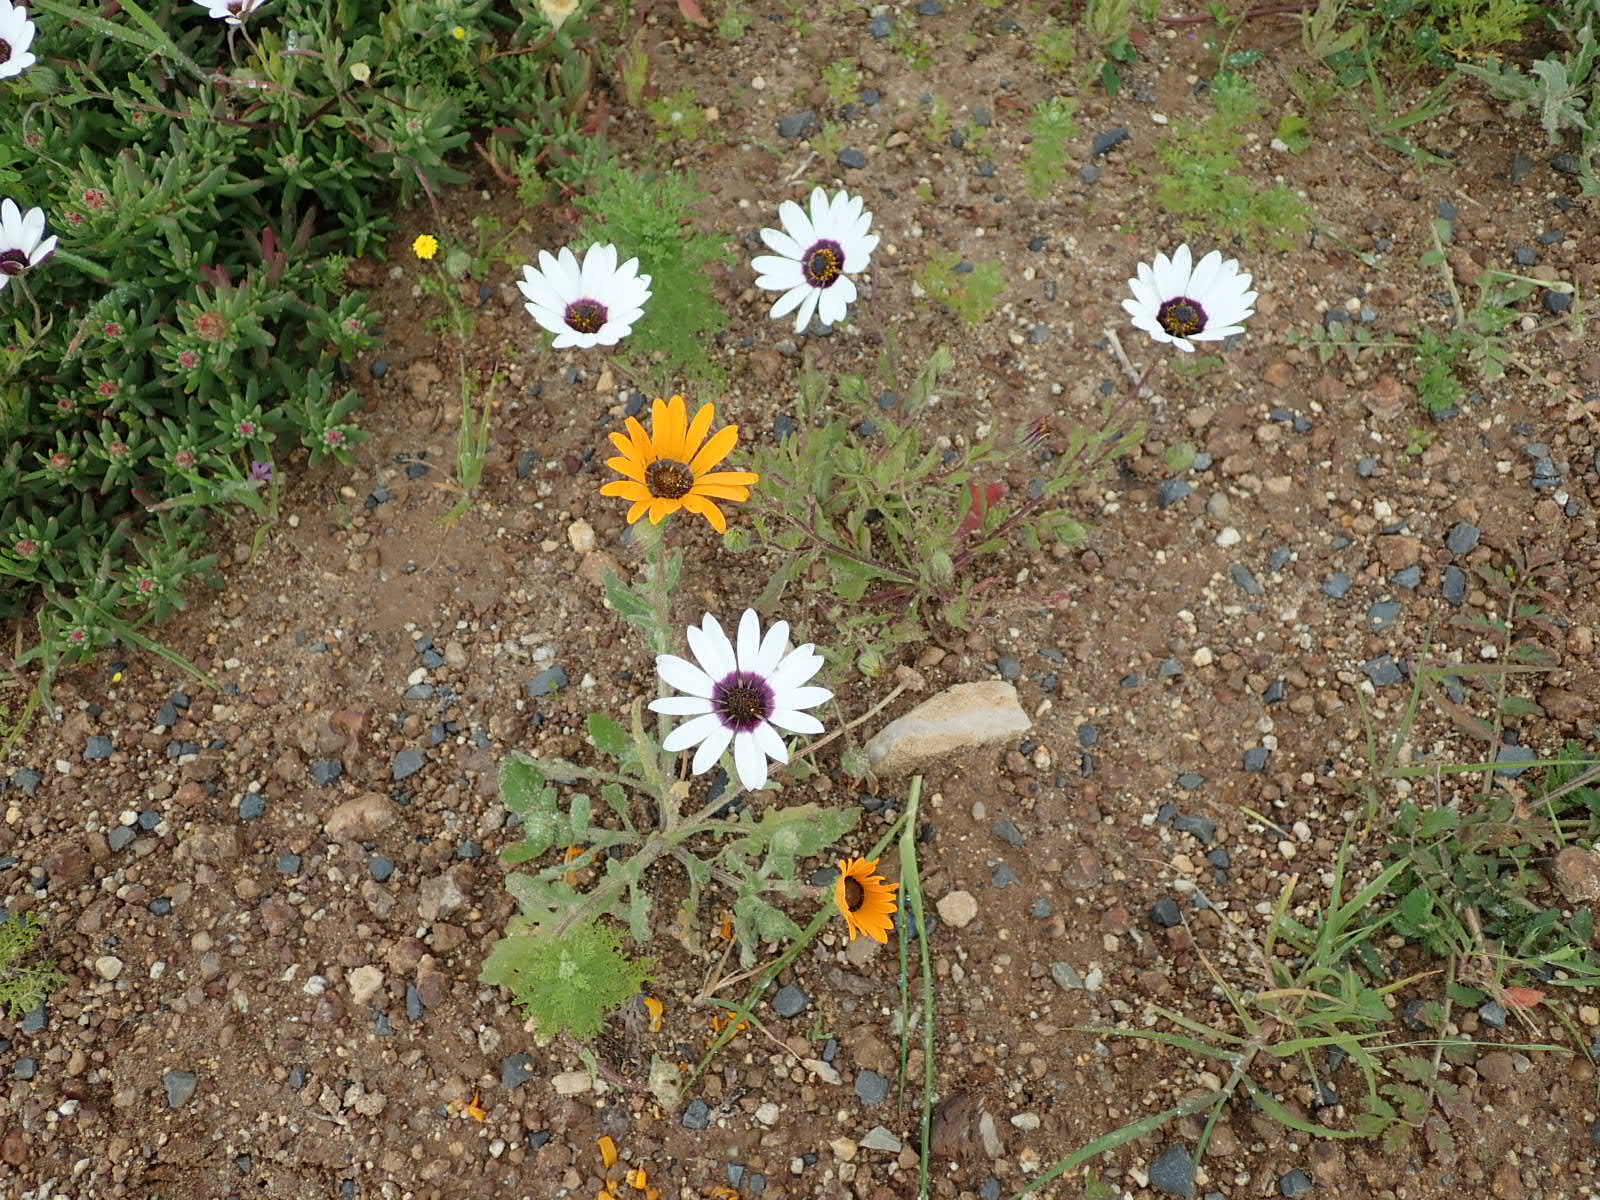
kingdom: Plantae
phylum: Tracheophyta
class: Magnoliopsida
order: Asterales
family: Asteraceae
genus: Dimorphotheca
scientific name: Dimorphotheca pluvialis
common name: Weather prophet
